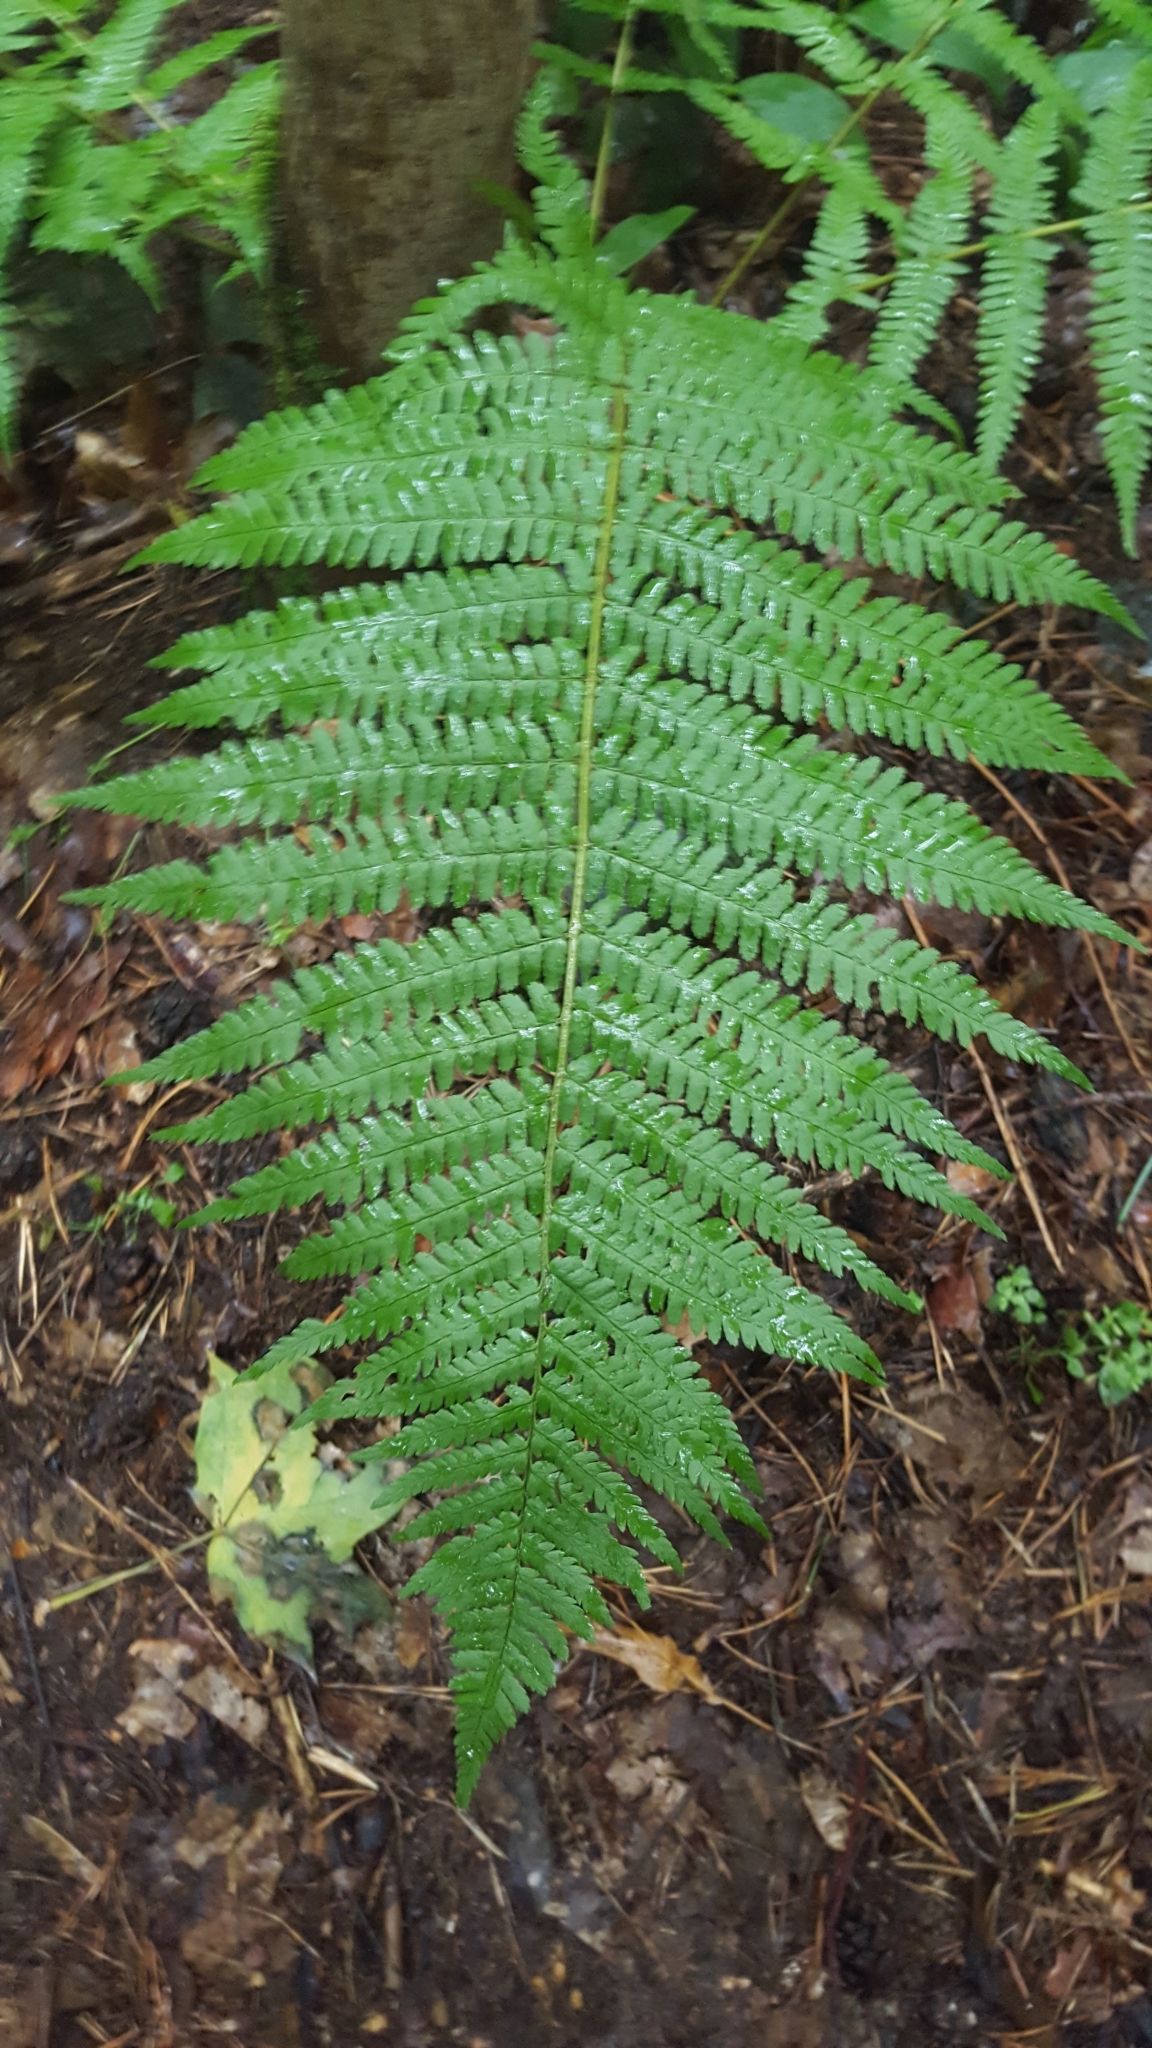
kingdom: Plantae
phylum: Tracheophyta
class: Polypodiopsida
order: Polypodiales
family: Dryopteridaceae
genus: Dryopteris
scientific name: Dryopteris filix-mas
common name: Male fern
